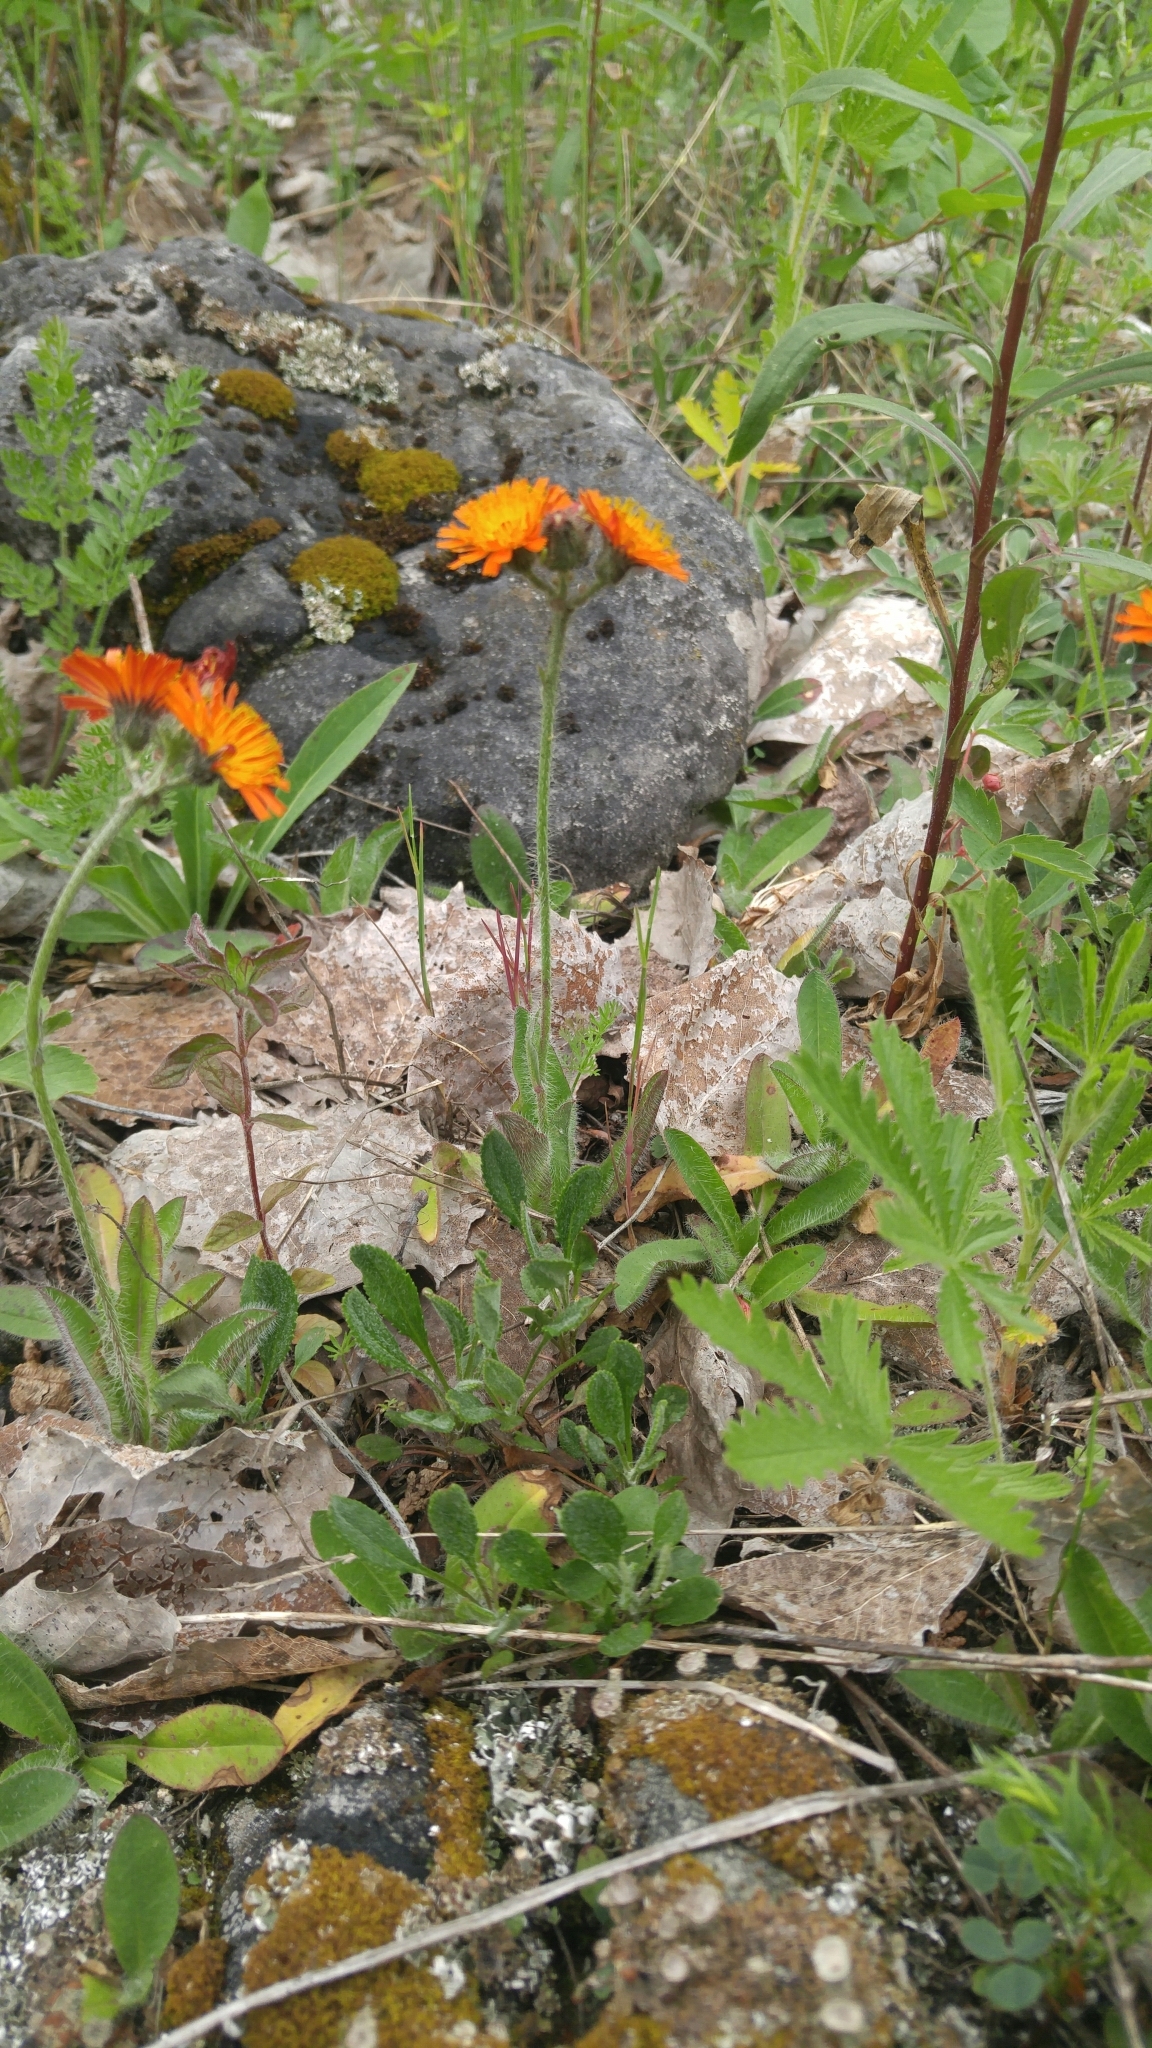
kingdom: Plantae
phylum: Tracheophyta
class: Magnoliopsida
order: Asterales
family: Asteraceae
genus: Pilosella
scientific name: Pilosella aurantiaca
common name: Fox-and-cubs
